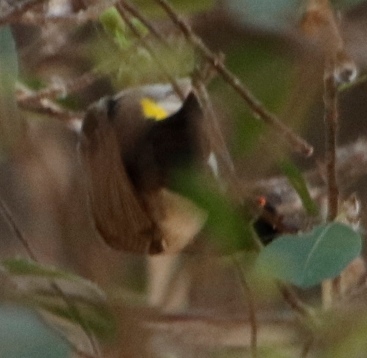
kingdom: Animalia
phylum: Chordata
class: Aves
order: Passeriformes
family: Pycnonotidae
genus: Pycnonotus
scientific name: Pycnonotus nigricans
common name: African red-eyed bulbul
